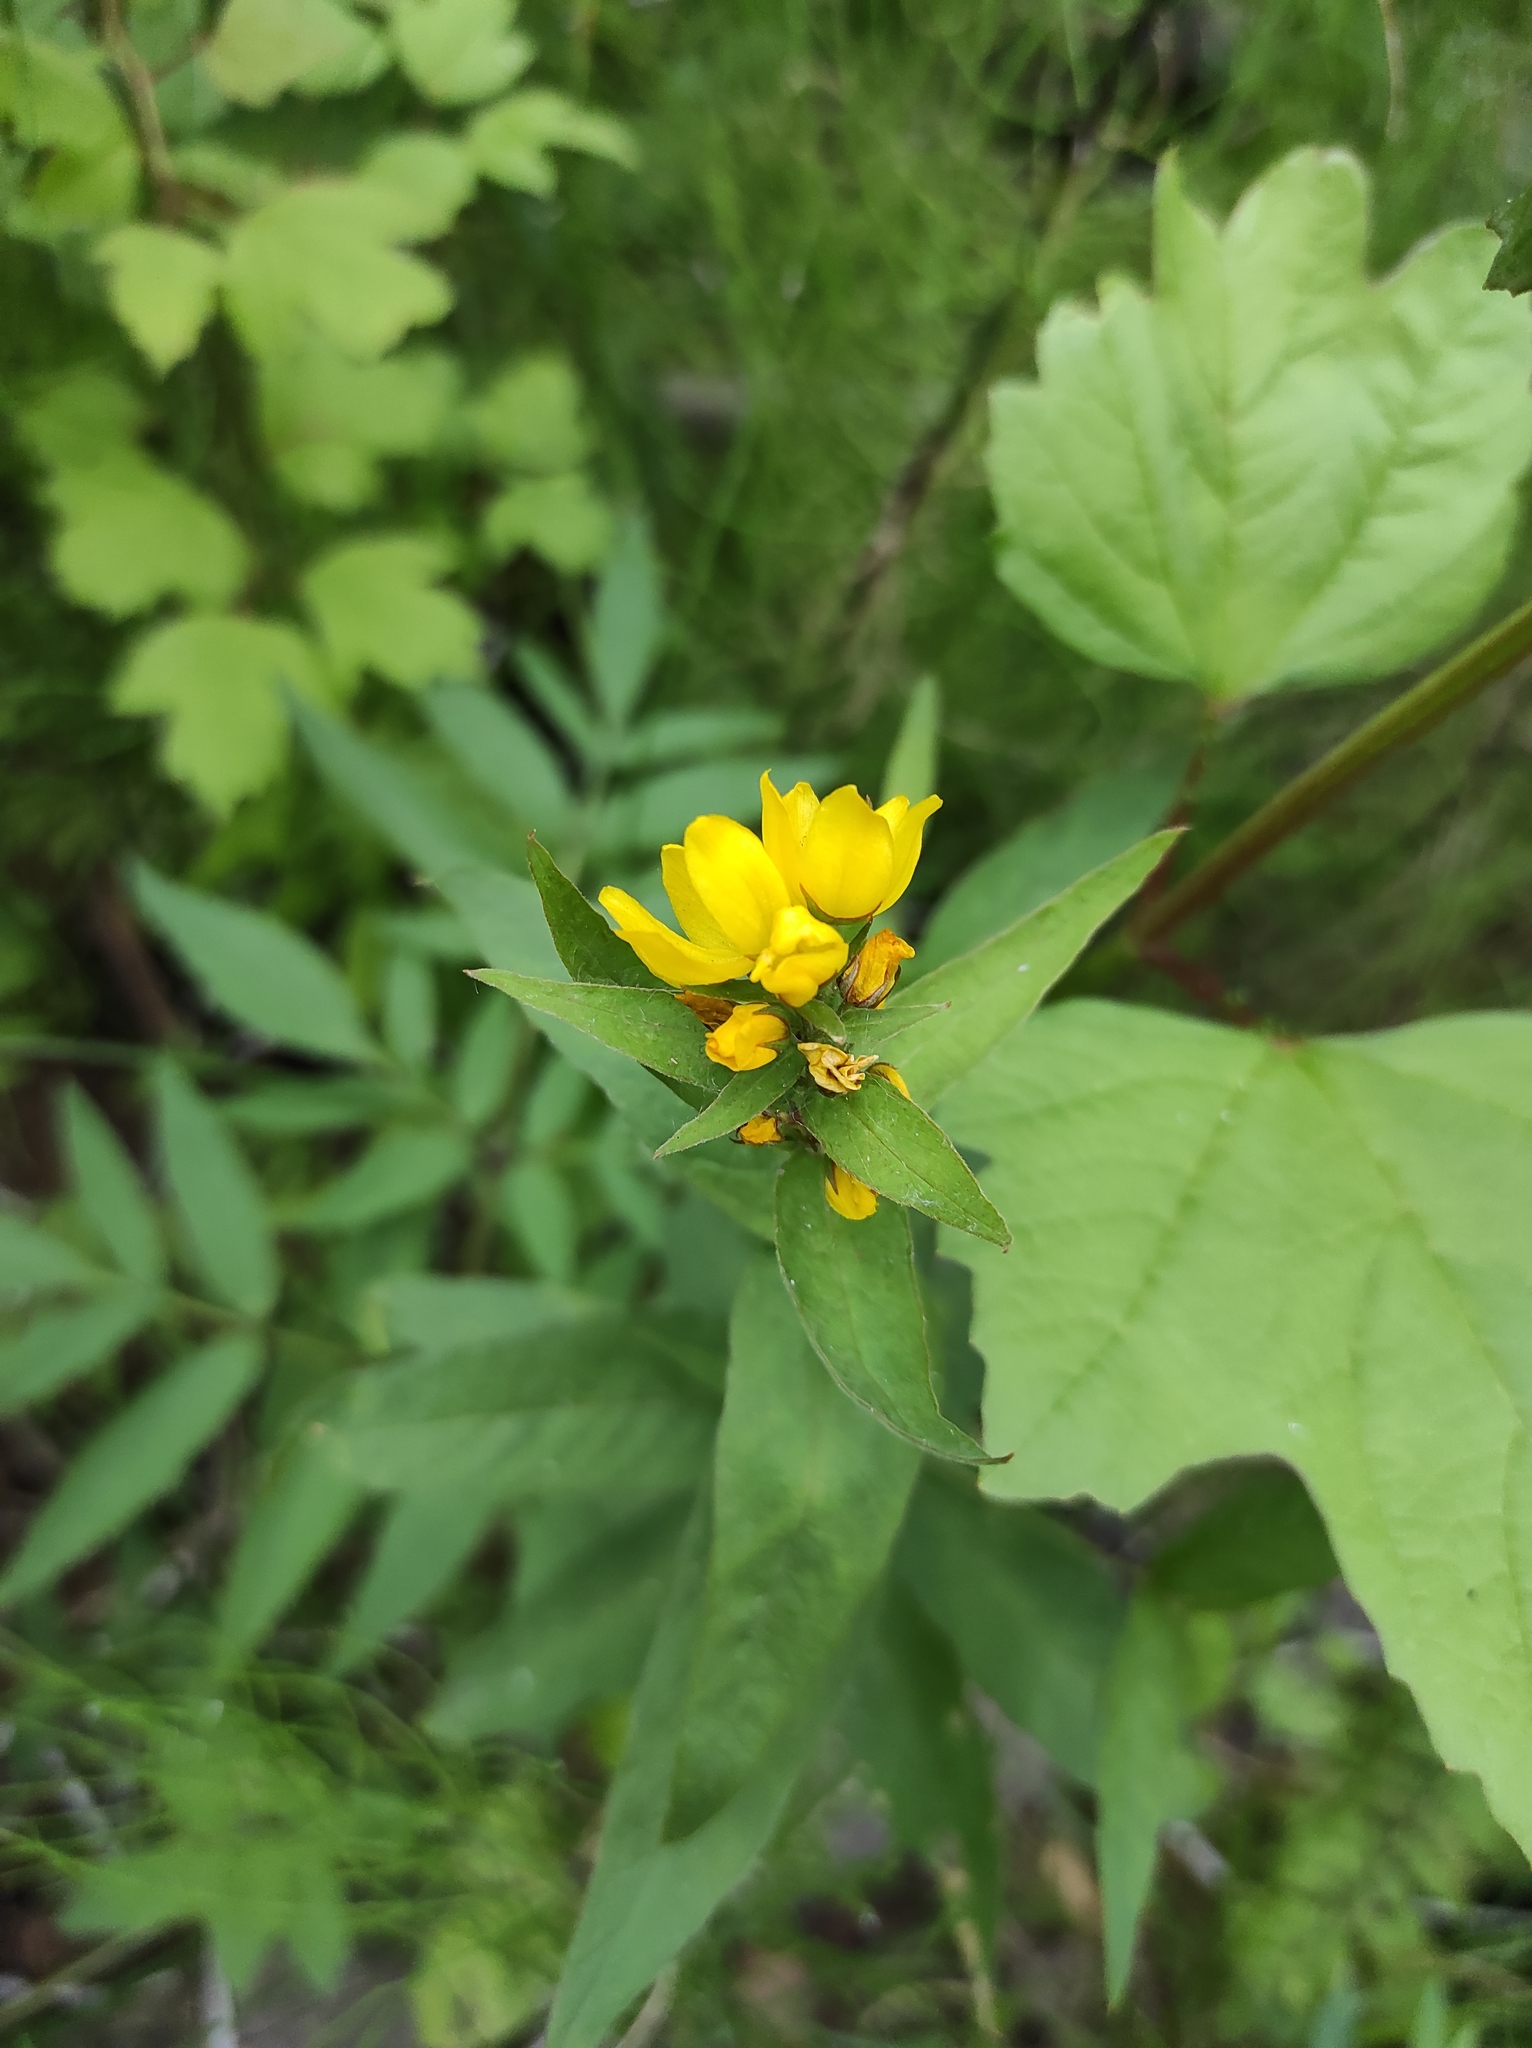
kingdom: Plantae
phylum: Tracheophyta
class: Magnoliopsida
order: Ericales
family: Primulaceae
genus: Lysimachia
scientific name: Lysimachia vulgaris
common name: Yellow loosestrife
